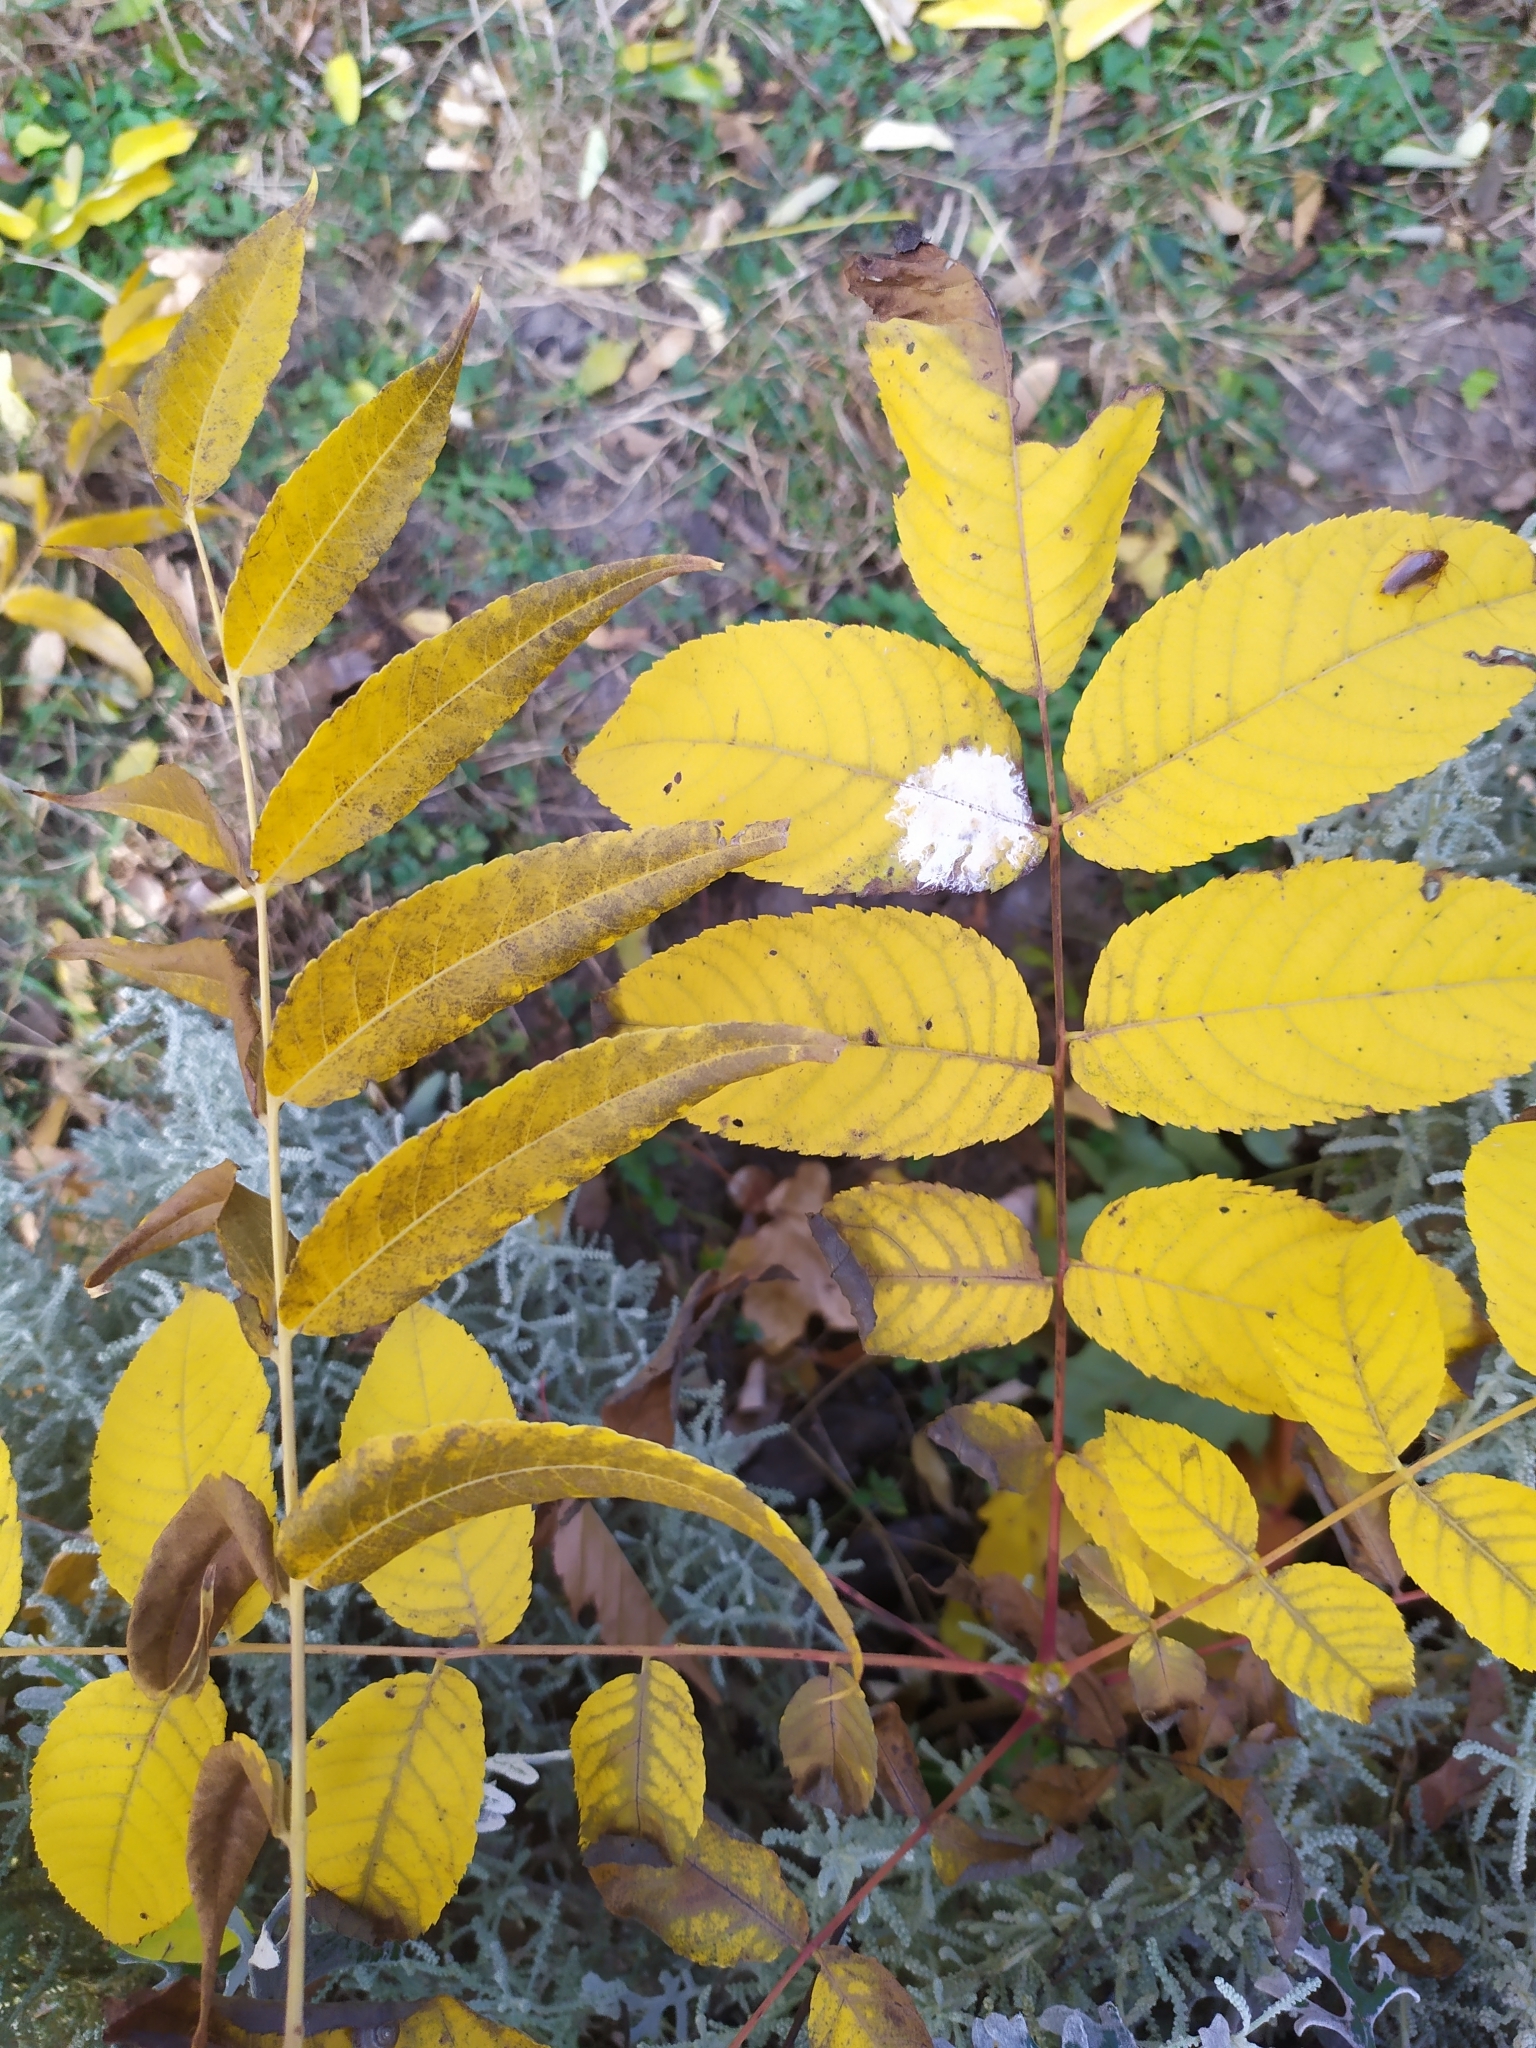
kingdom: Plantae
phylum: Tracheophyta
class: Magnoliopsida
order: Fagales
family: Juglandaceae
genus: Juglans
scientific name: Juglans nigra
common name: Black walnut
